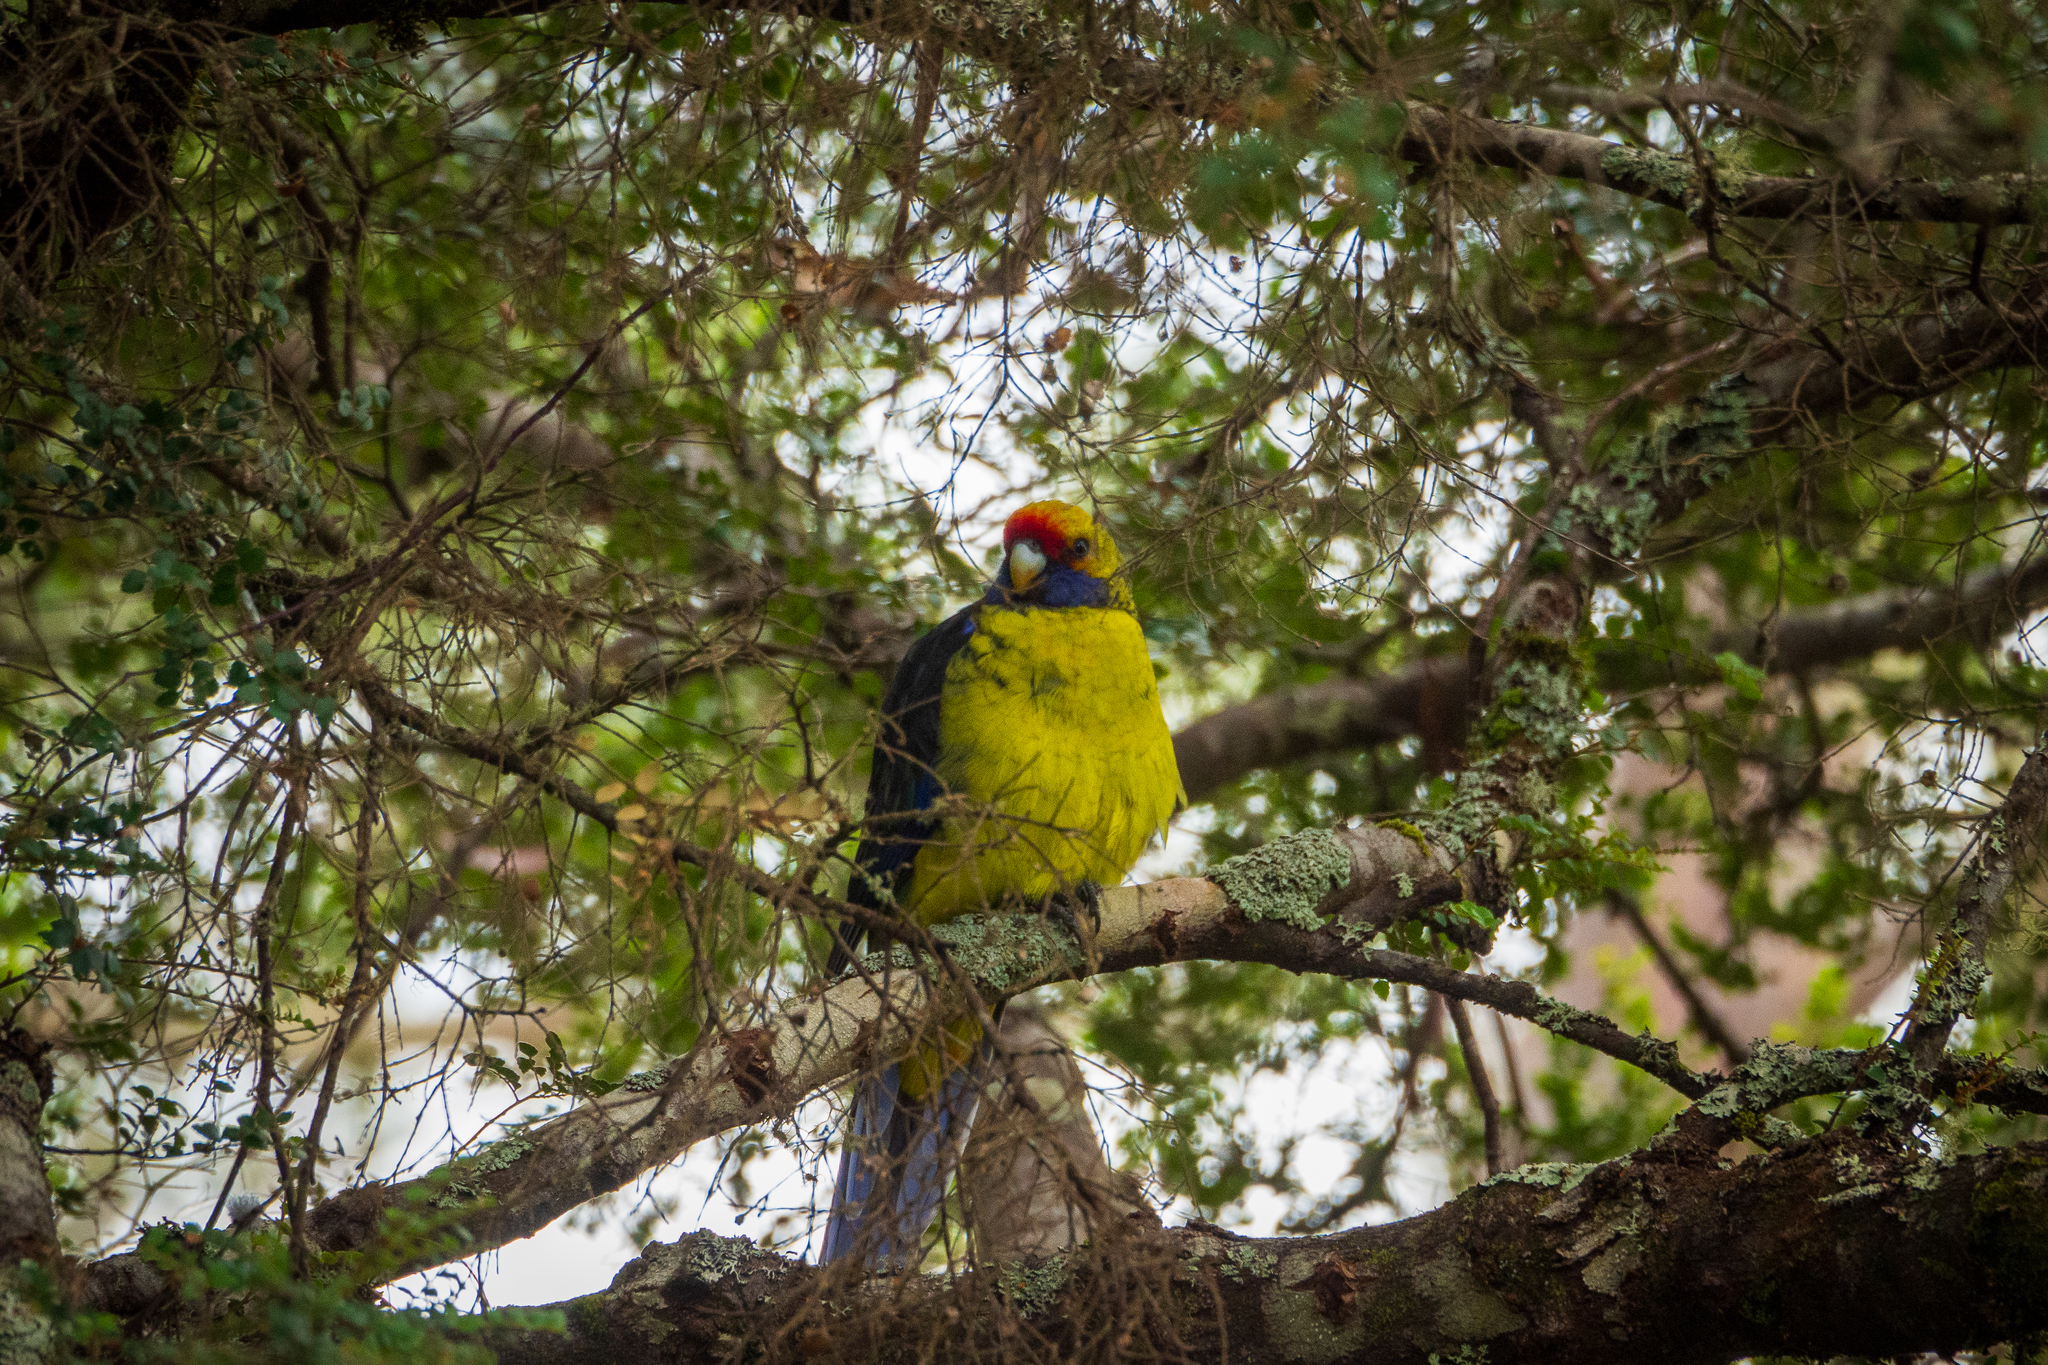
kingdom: Animalia
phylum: Chordata
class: Aves
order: Psittaciformes
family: Psittacidae
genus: Platycercus
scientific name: Platycercus caledonicus
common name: Green rosella
